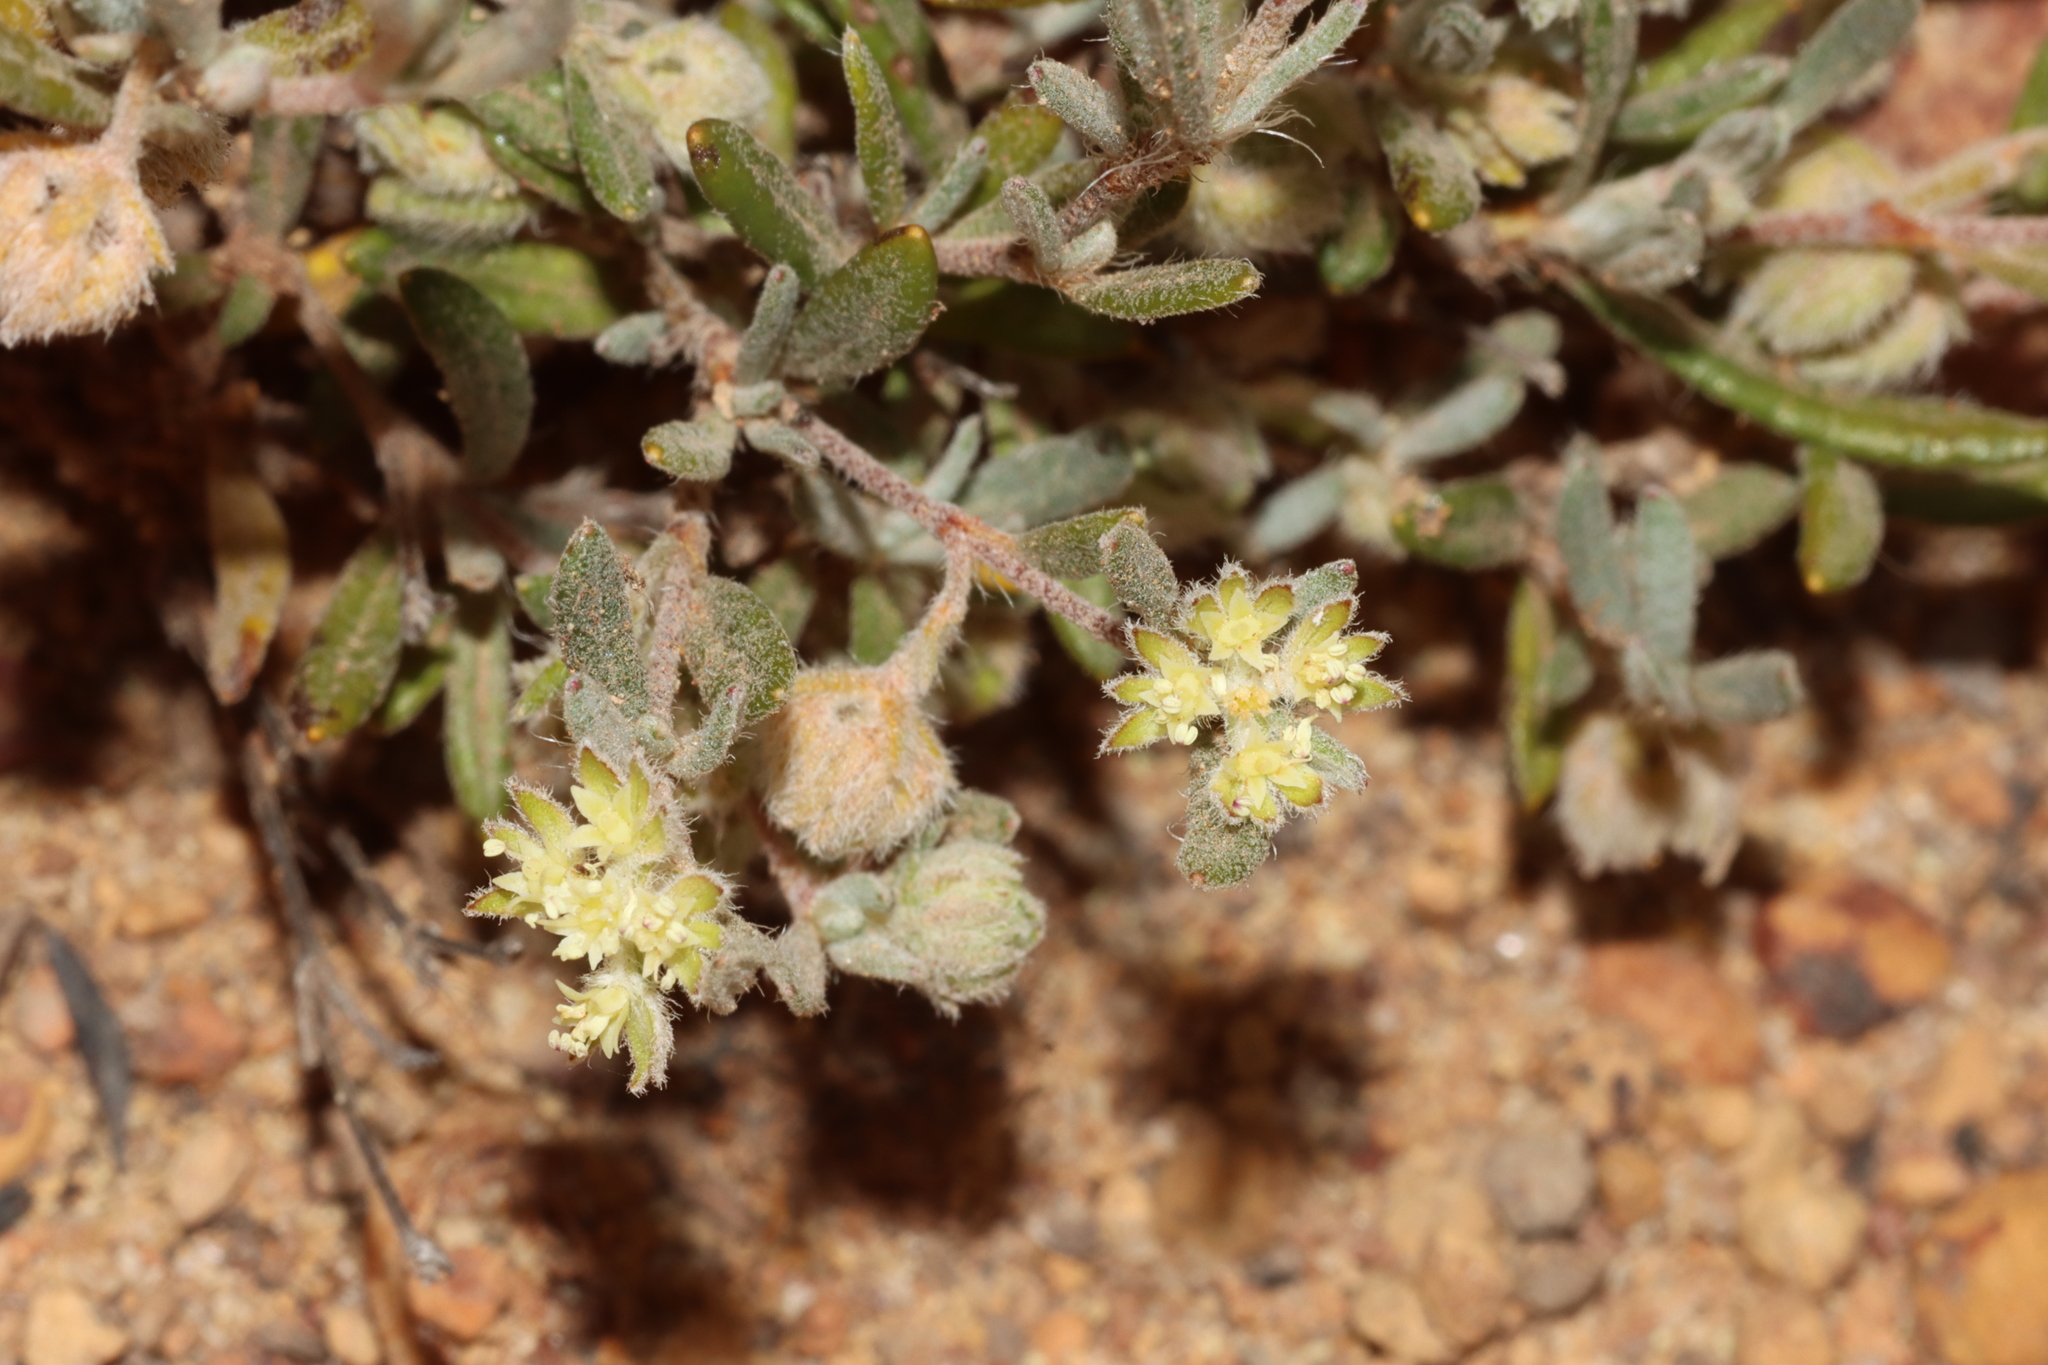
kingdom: Plantae
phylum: Tracheophyta
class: Magnoliopsida
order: Apiales
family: Apiaceae
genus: Xanthosia
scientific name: Xanthosia ciliata
